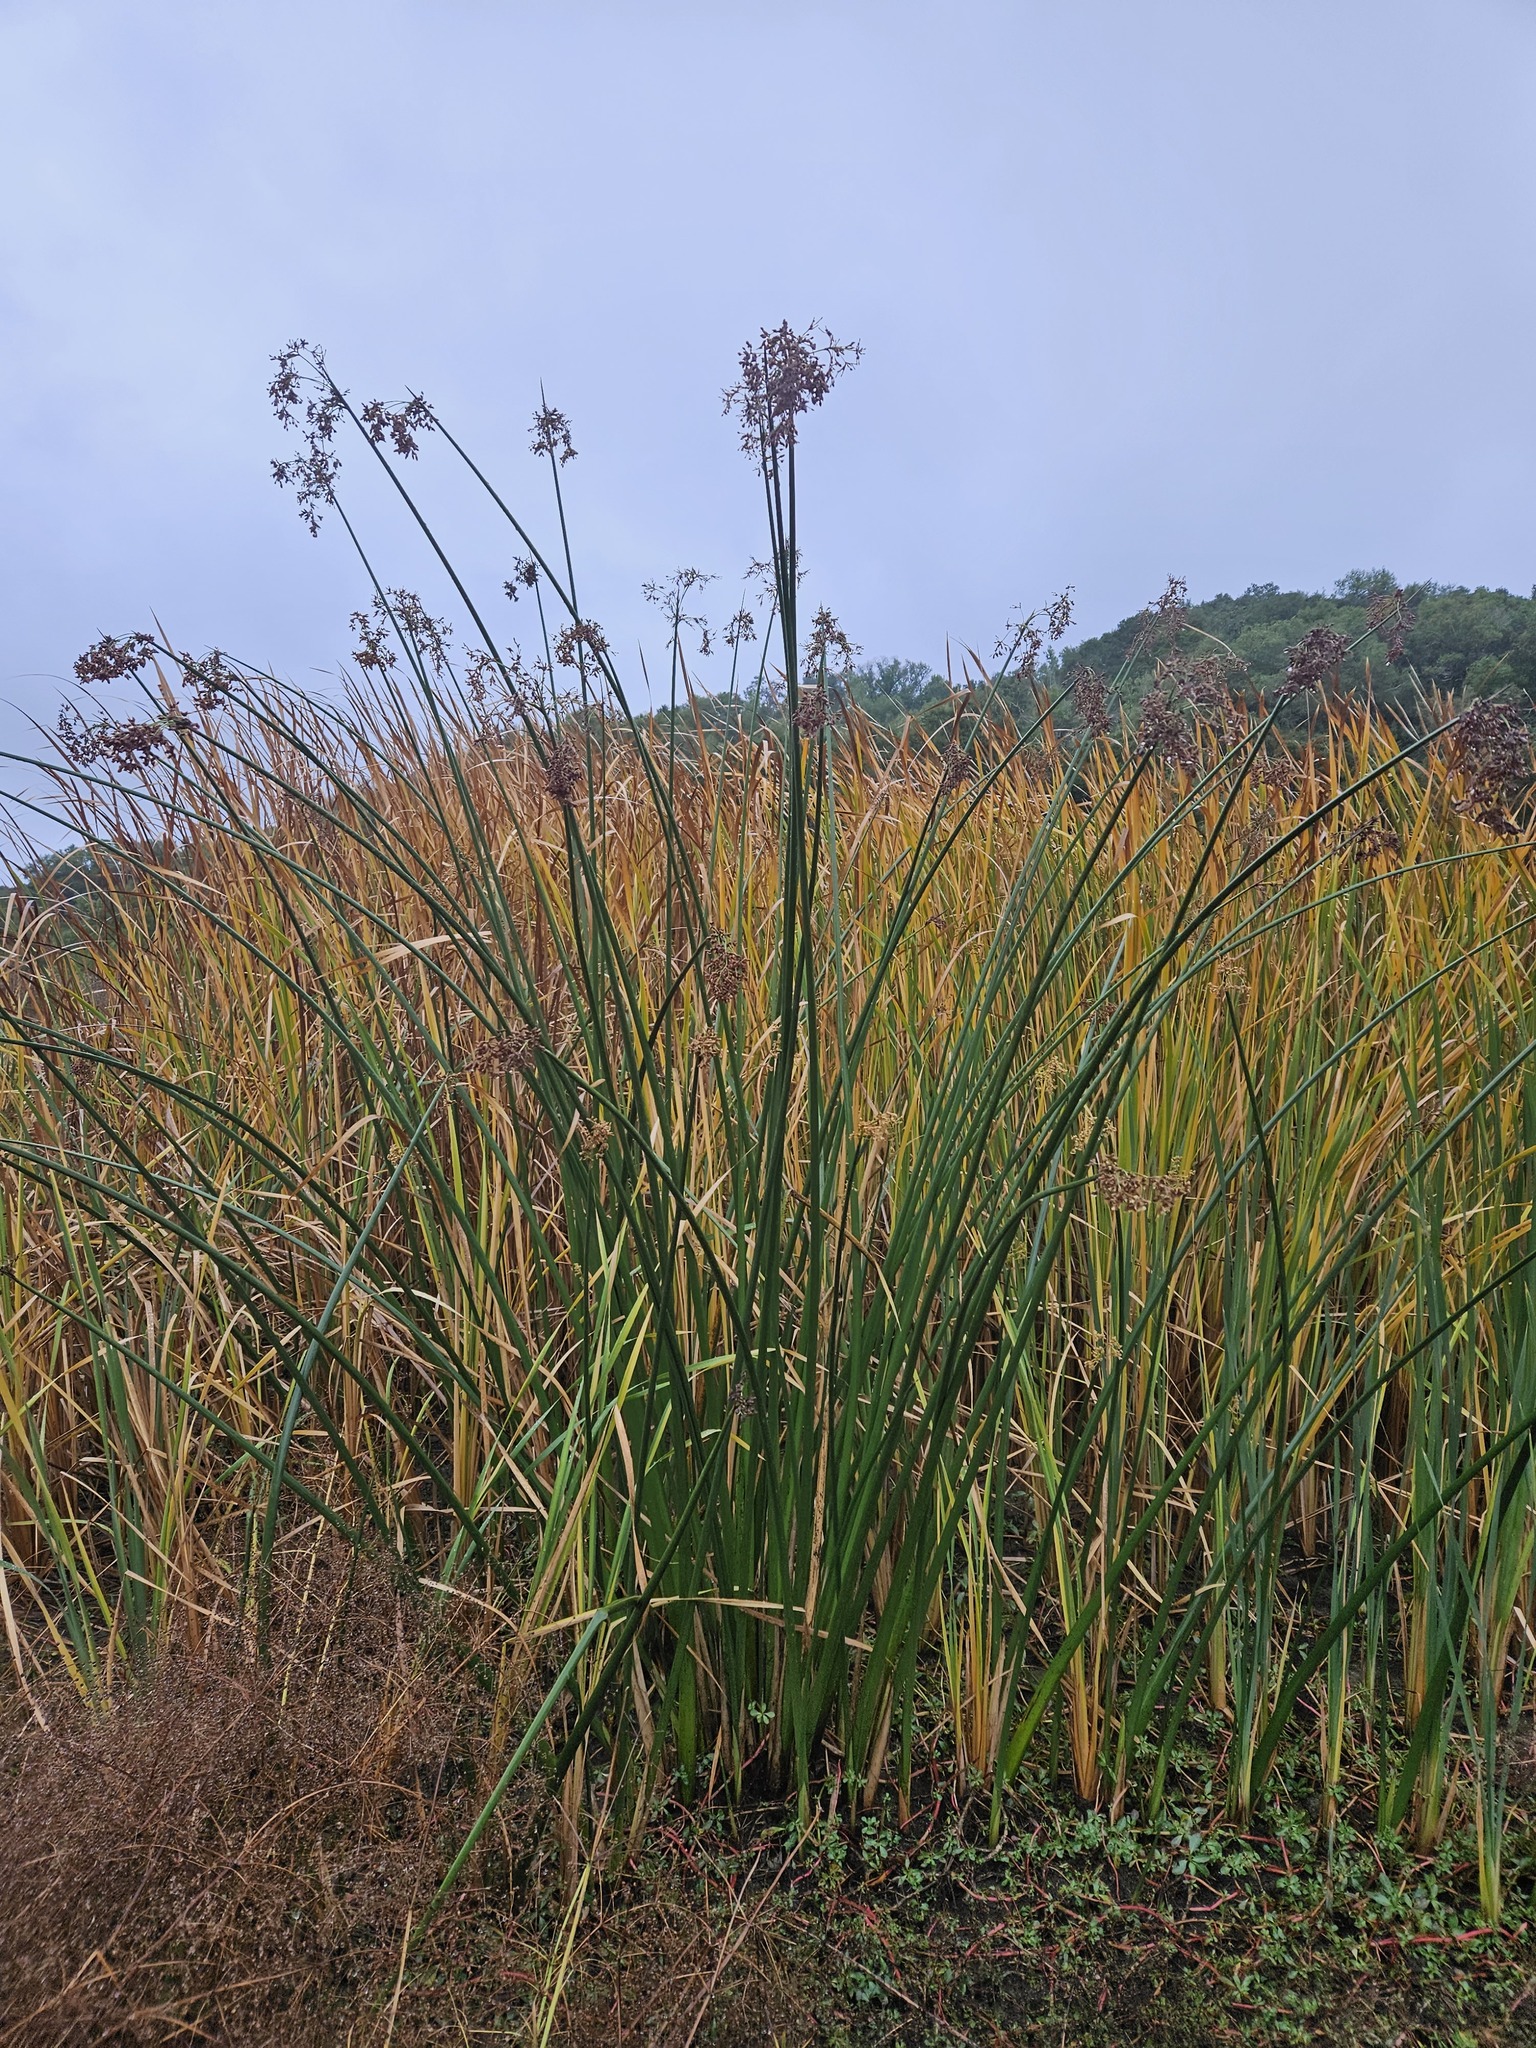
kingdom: Plantae
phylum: Tracheophyta
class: Liliopsida
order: Poales
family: Cyperaceae
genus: Schoenoplectus
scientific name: Schoenoplectus californicus
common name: California bulrush
